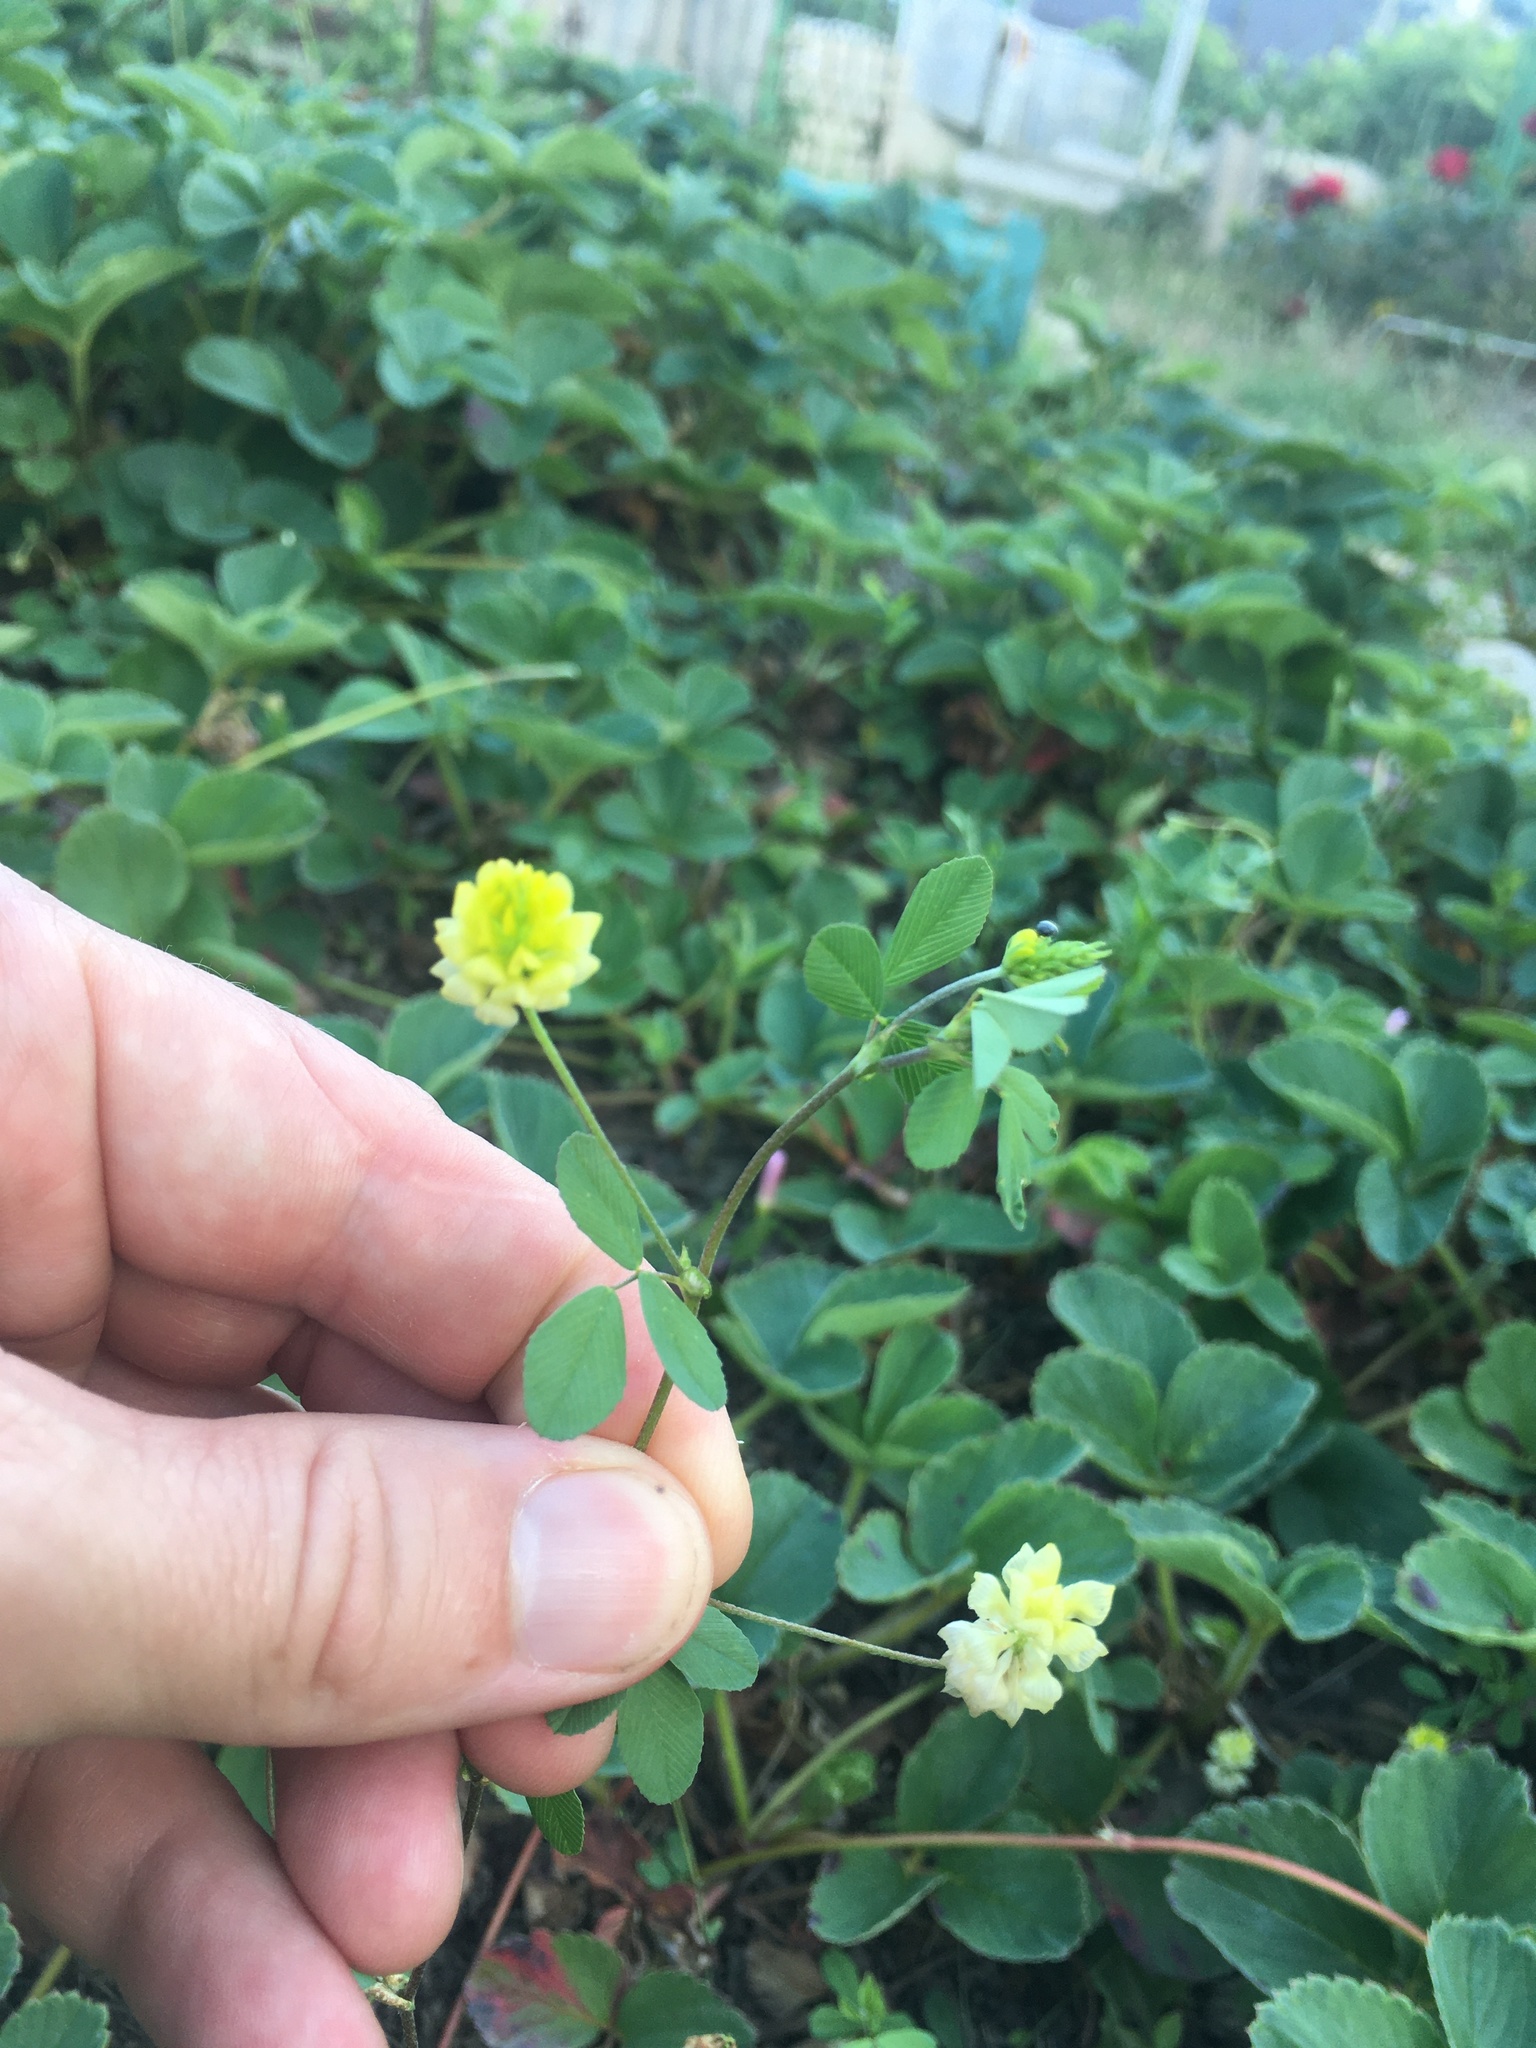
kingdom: Plantae
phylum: Tracheophyta
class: Magnoliopsida
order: Fabales
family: Fabaceae
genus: Trifolium
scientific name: Trifolium campestre
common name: Field clover
